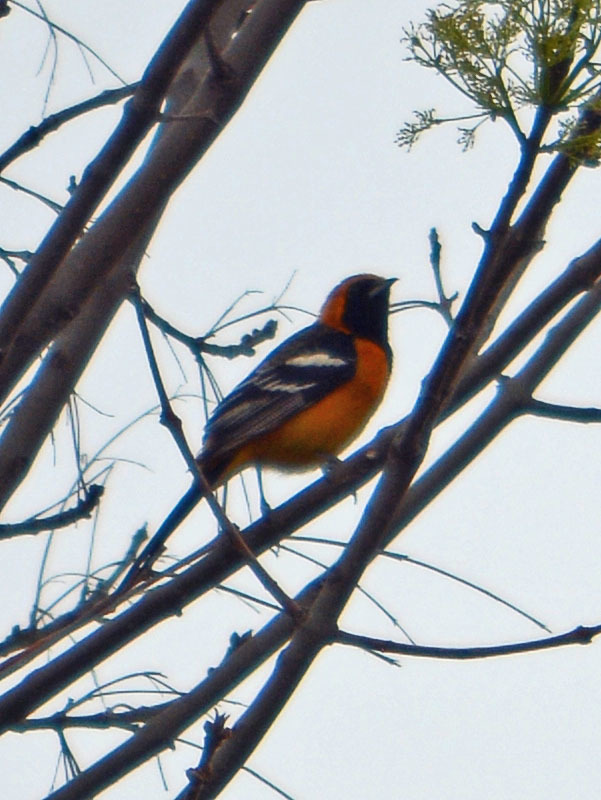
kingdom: Animalia
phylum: Chordata
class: Aves
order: Passeriformes
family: Icteridae
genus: Icterus
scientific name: Icterus cucullatus
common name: Hooded oriole
